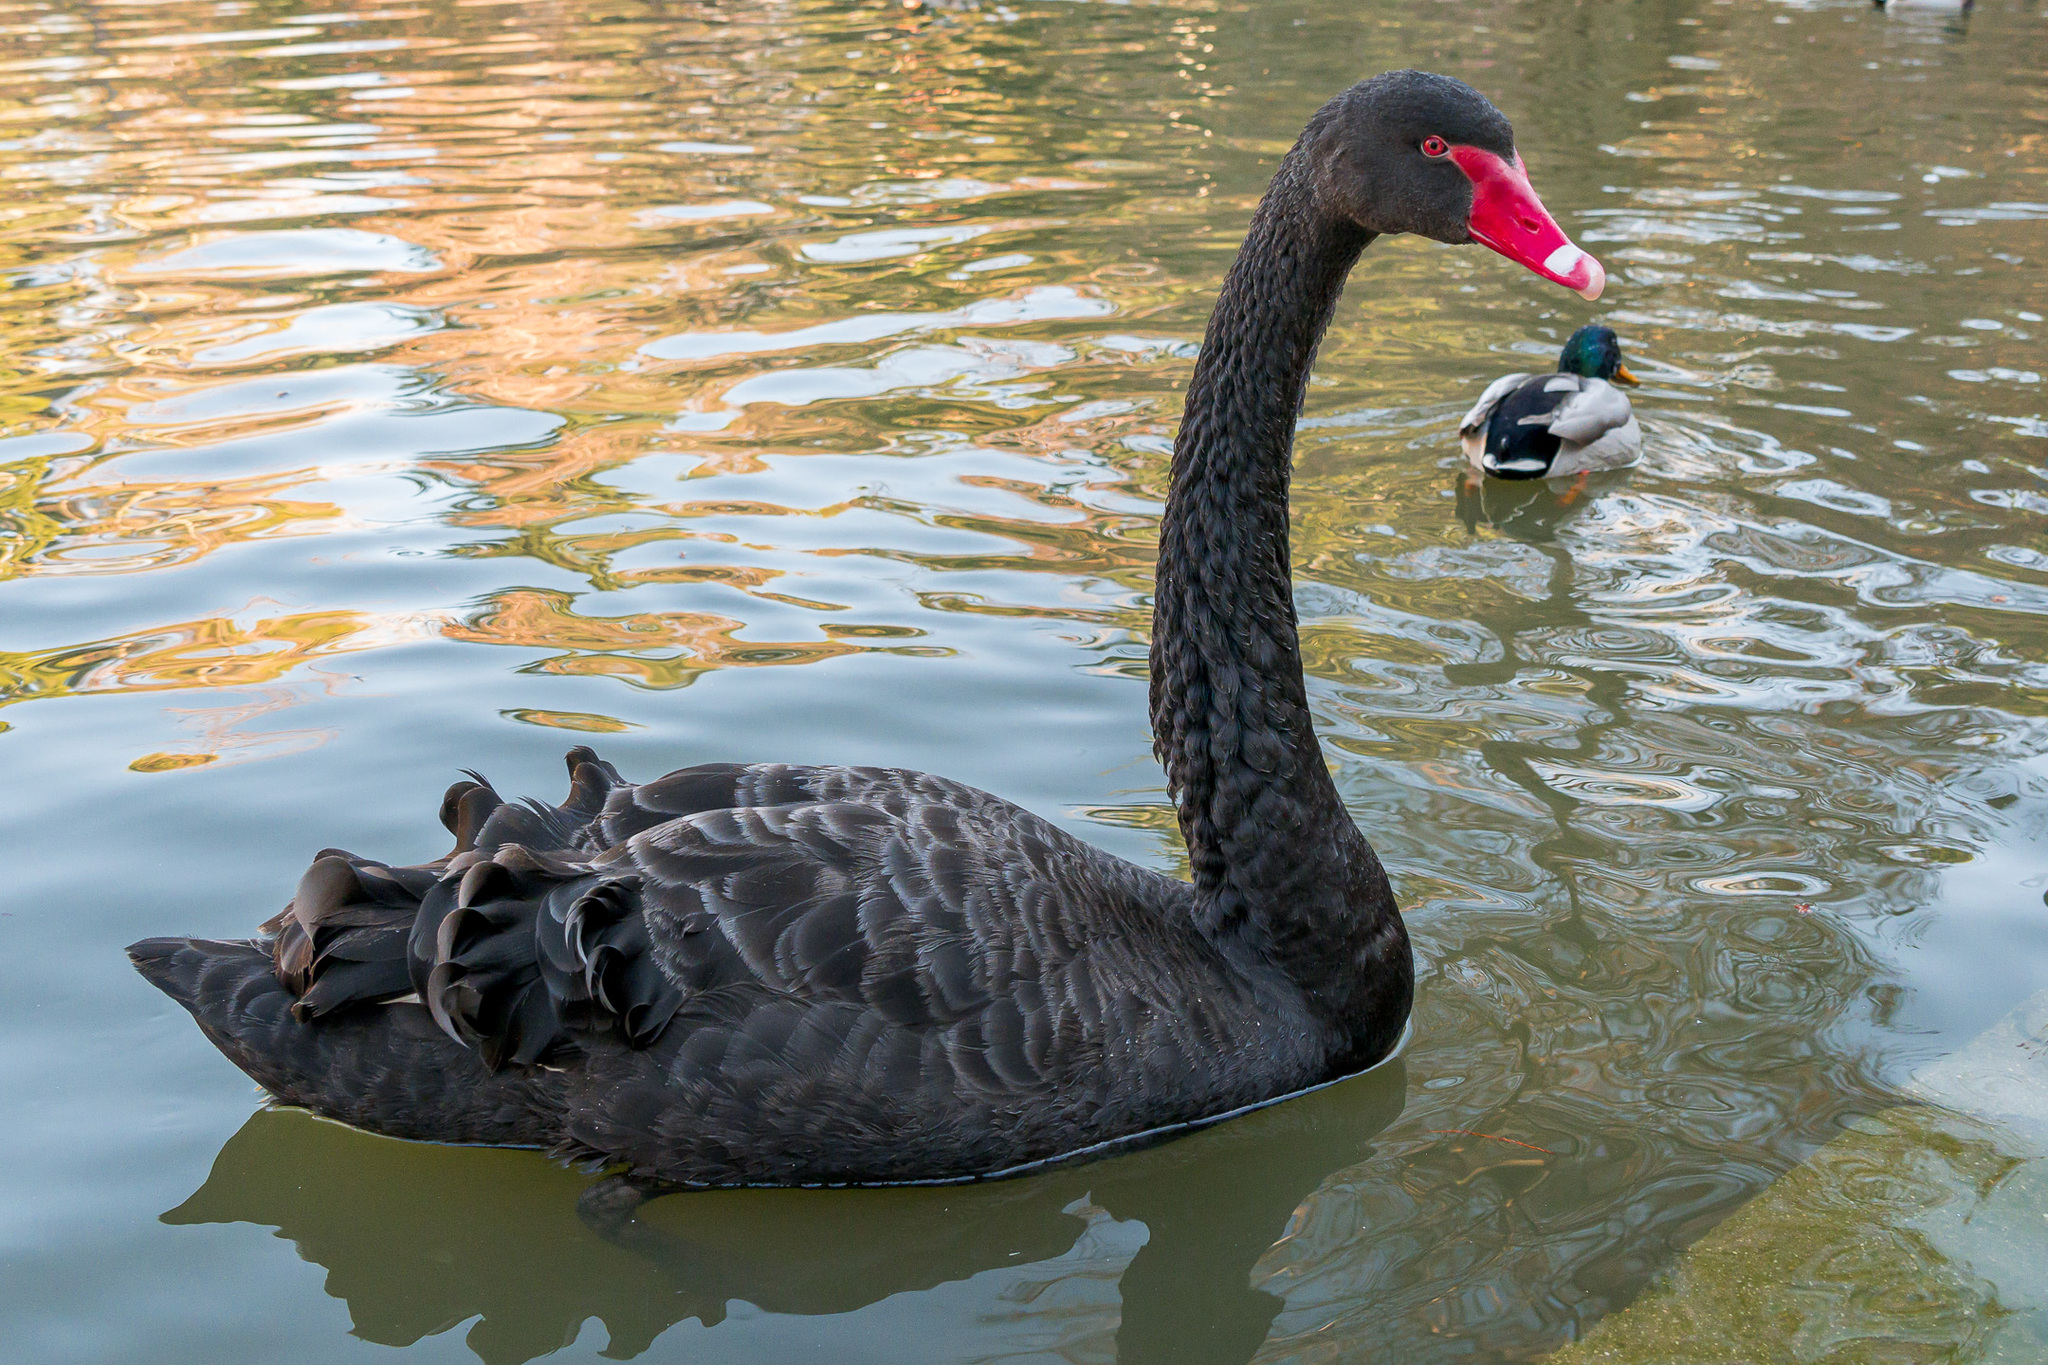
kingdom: Animalia
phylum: Chordata
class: Aves
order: Anseriformes
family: Anatidae
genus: Cygnus
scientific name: Cygnus atratus
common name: Black swan
